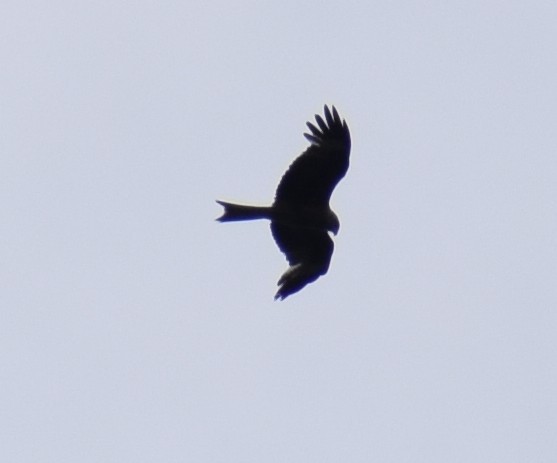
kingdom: Animalia
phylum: Chordata
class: Aves
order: Accipitriformes
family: Accipitridae
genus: Milvus
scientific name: Milvus milvus
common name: Red kite
